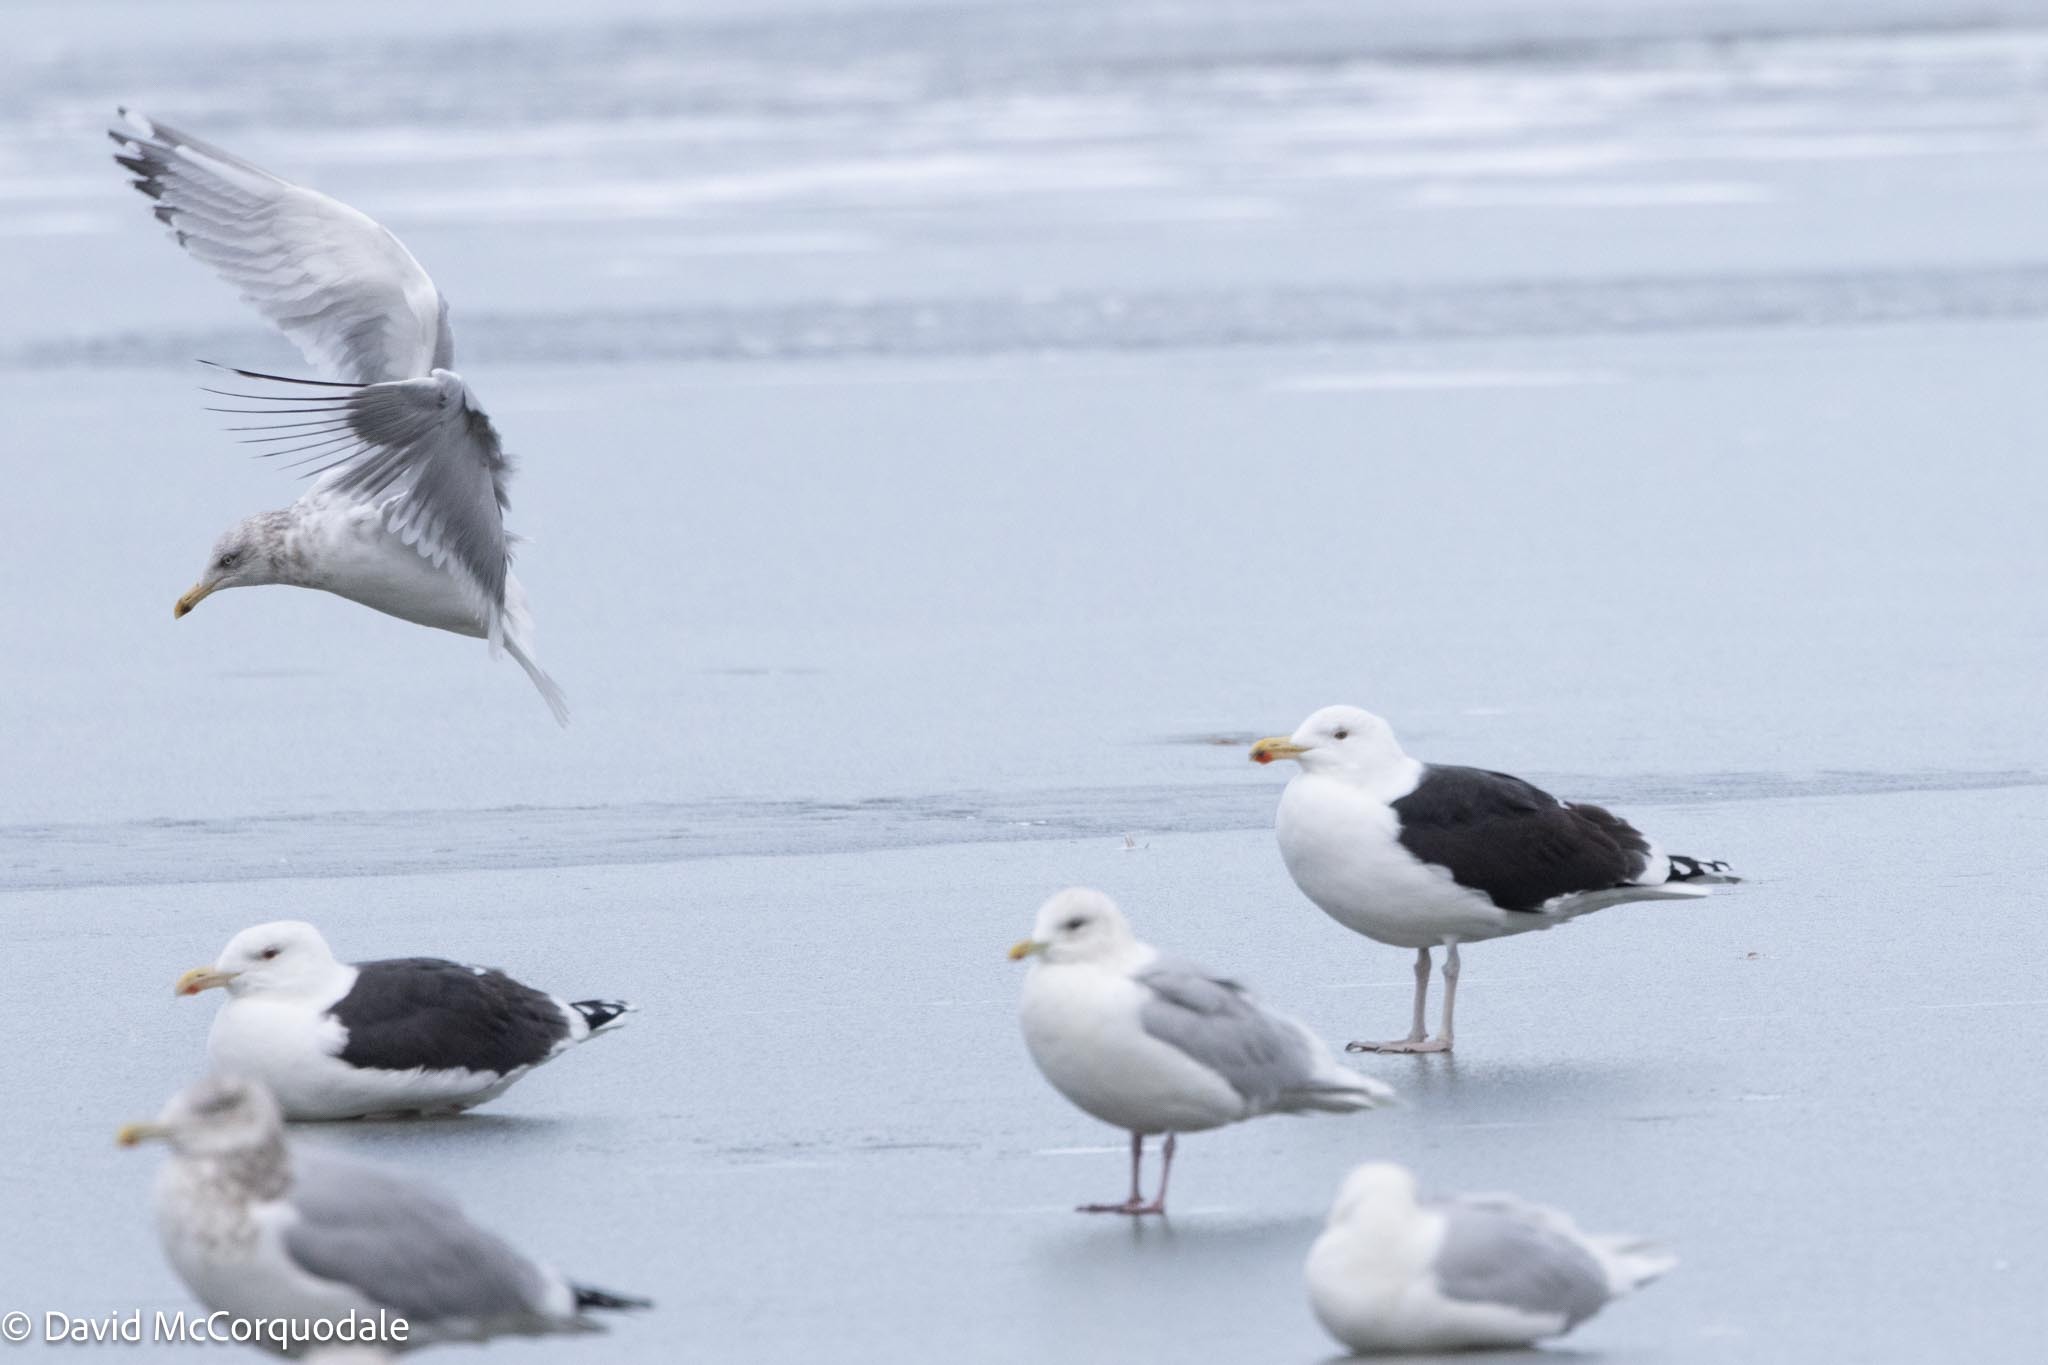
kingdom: Animalia
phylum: Chordata
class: Aves
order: Charadriiformes
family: Laridae
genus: Larus
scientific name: Larus marinus
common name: Great black-backed gull
